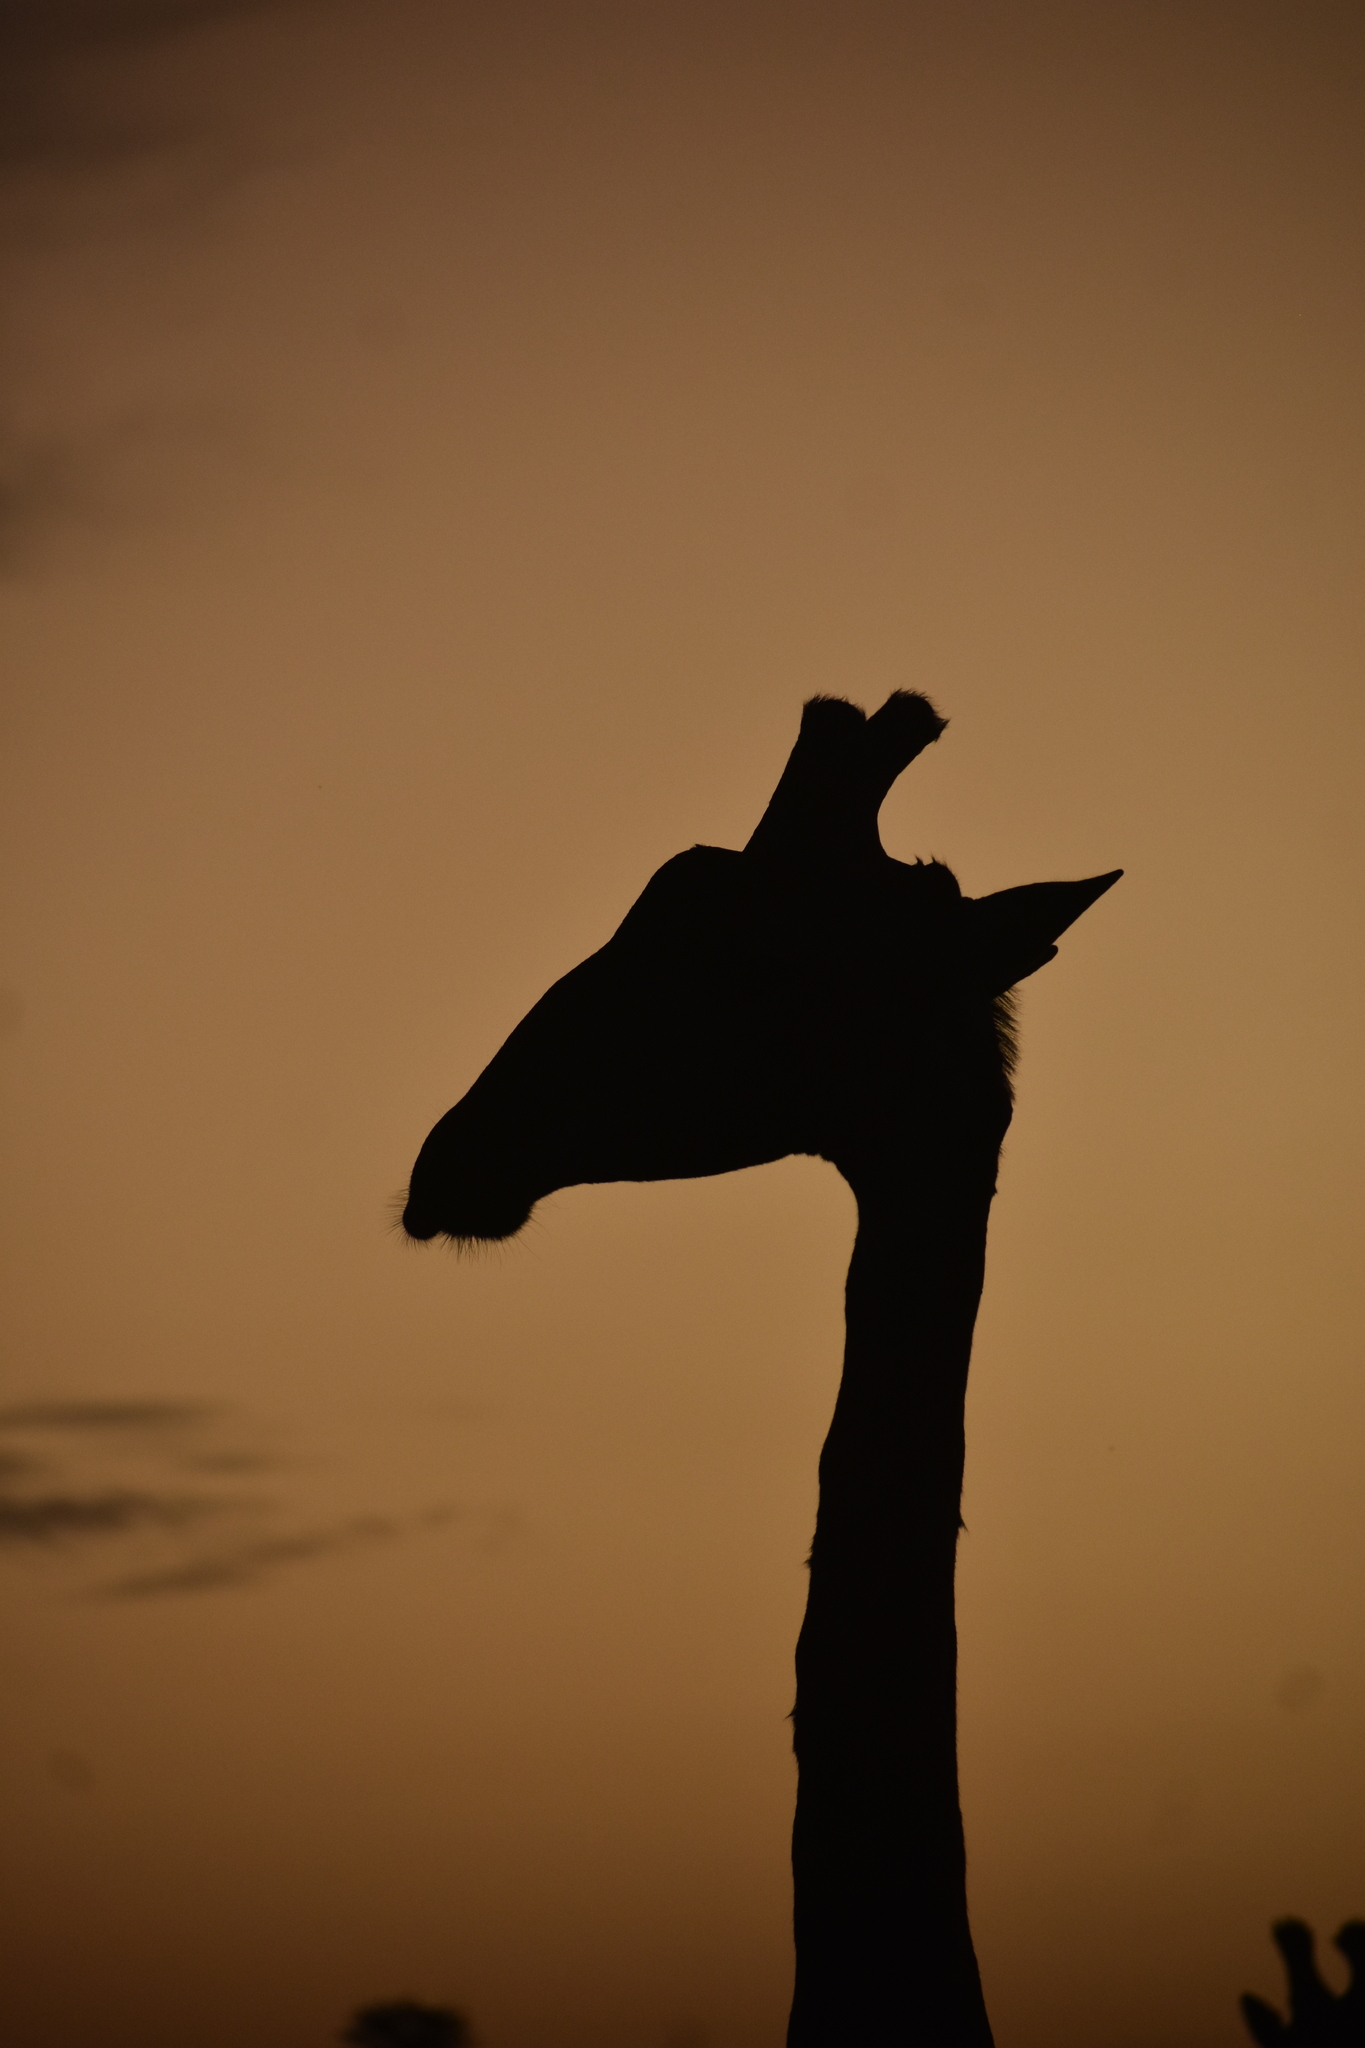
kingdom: Animalia
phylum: Chordata
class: Mammalia
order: Artiodactyla
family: Giraffidae
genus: Giraffa
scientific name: Giraffa giraffa
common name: Southern giraffe
